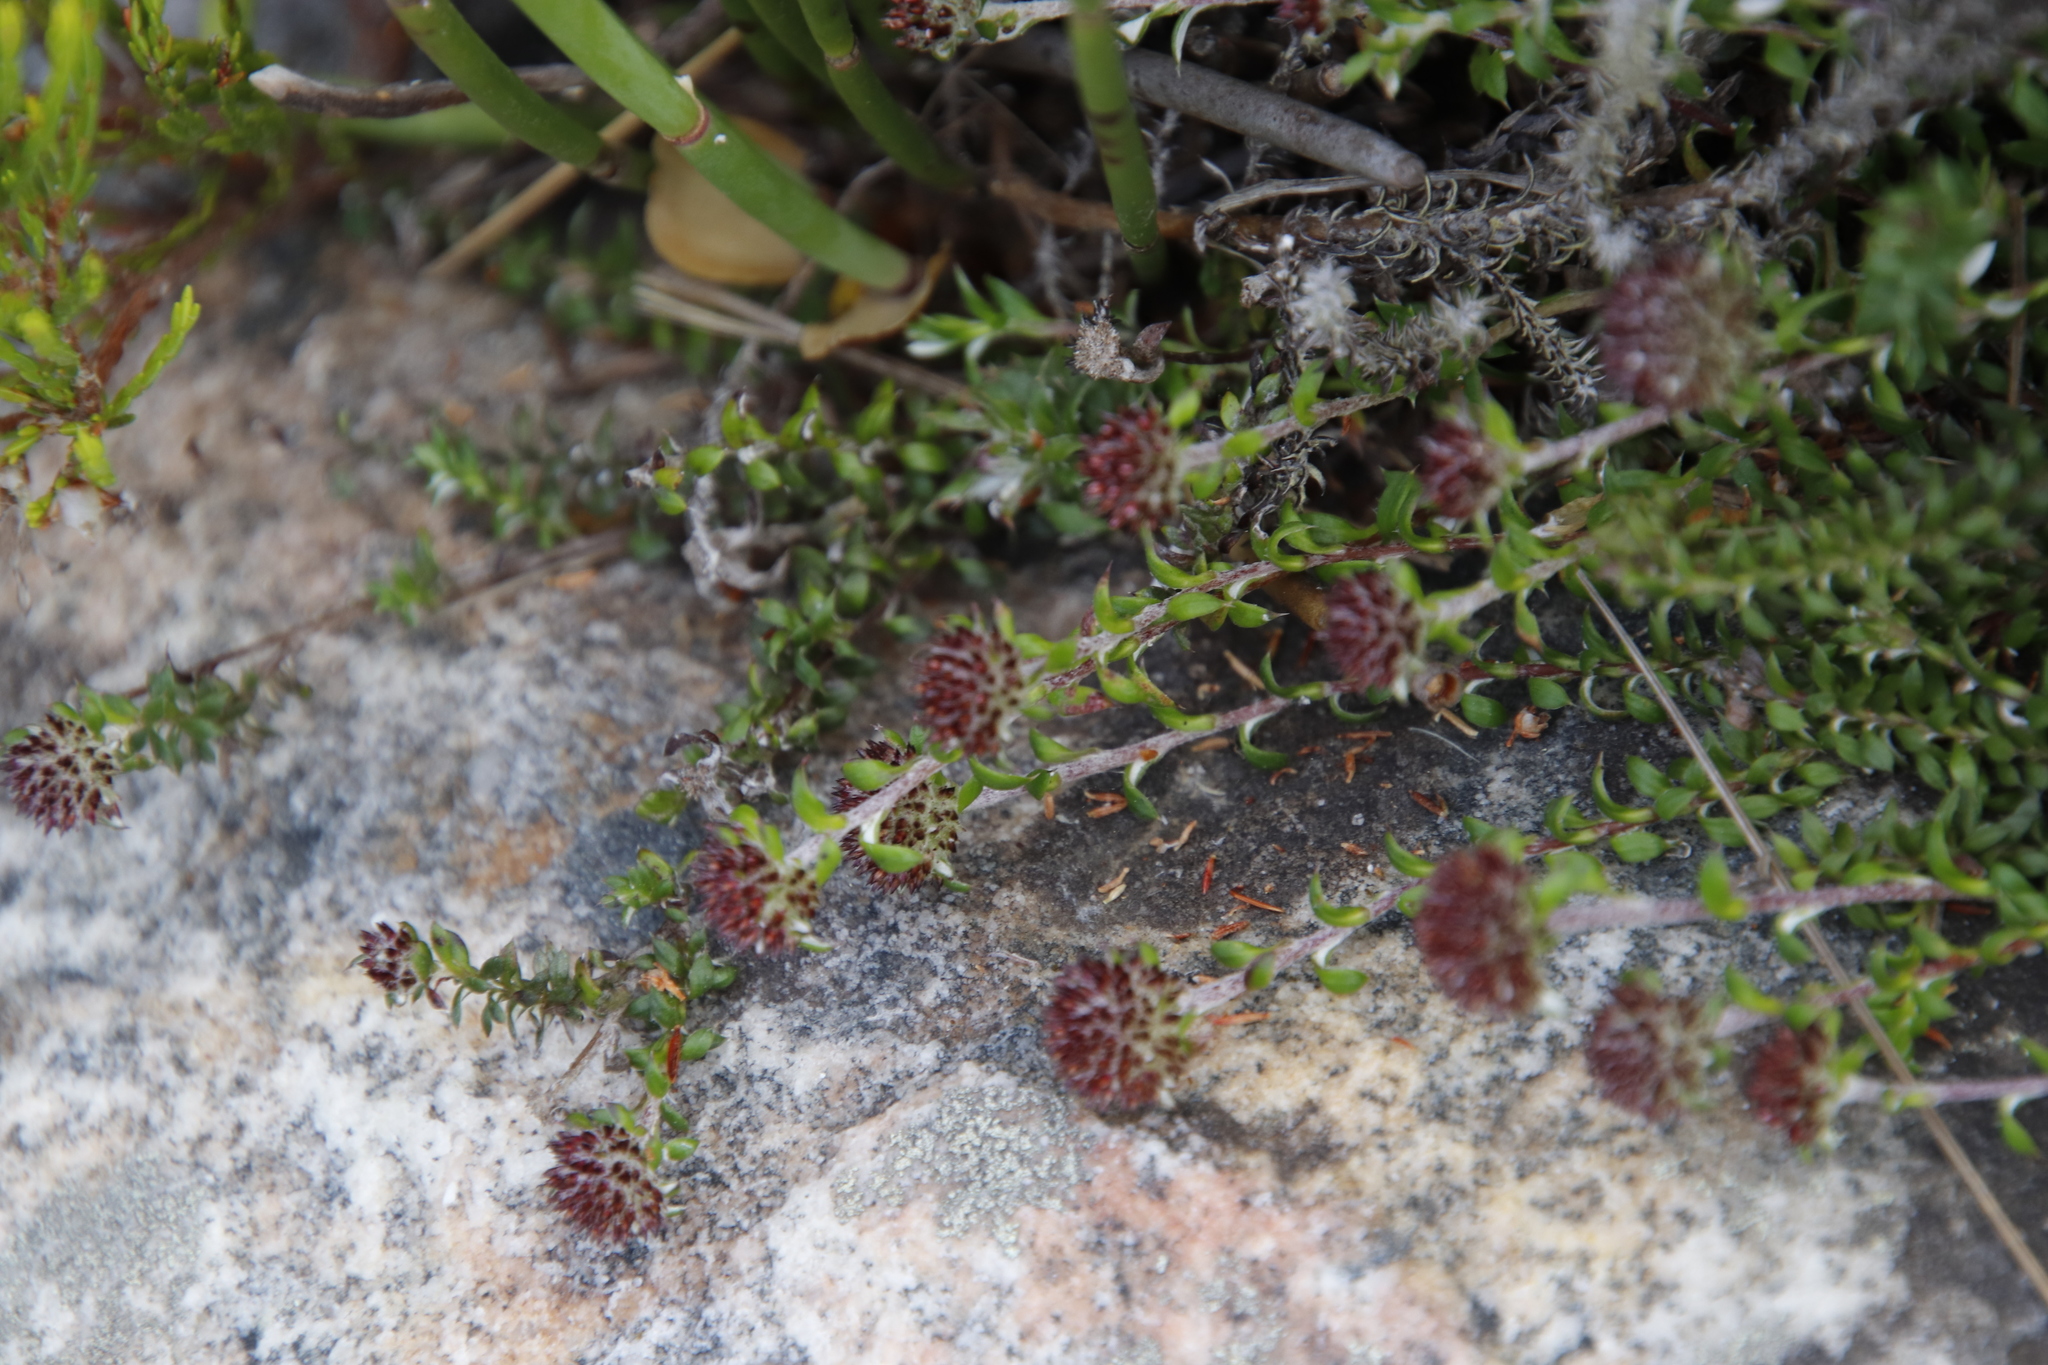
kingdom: Plantae
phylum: Tracheophyta
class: Magnoliopsida
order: Asterales
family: Asteraceae
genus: Stoebe
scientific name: Stoebe prostrata
